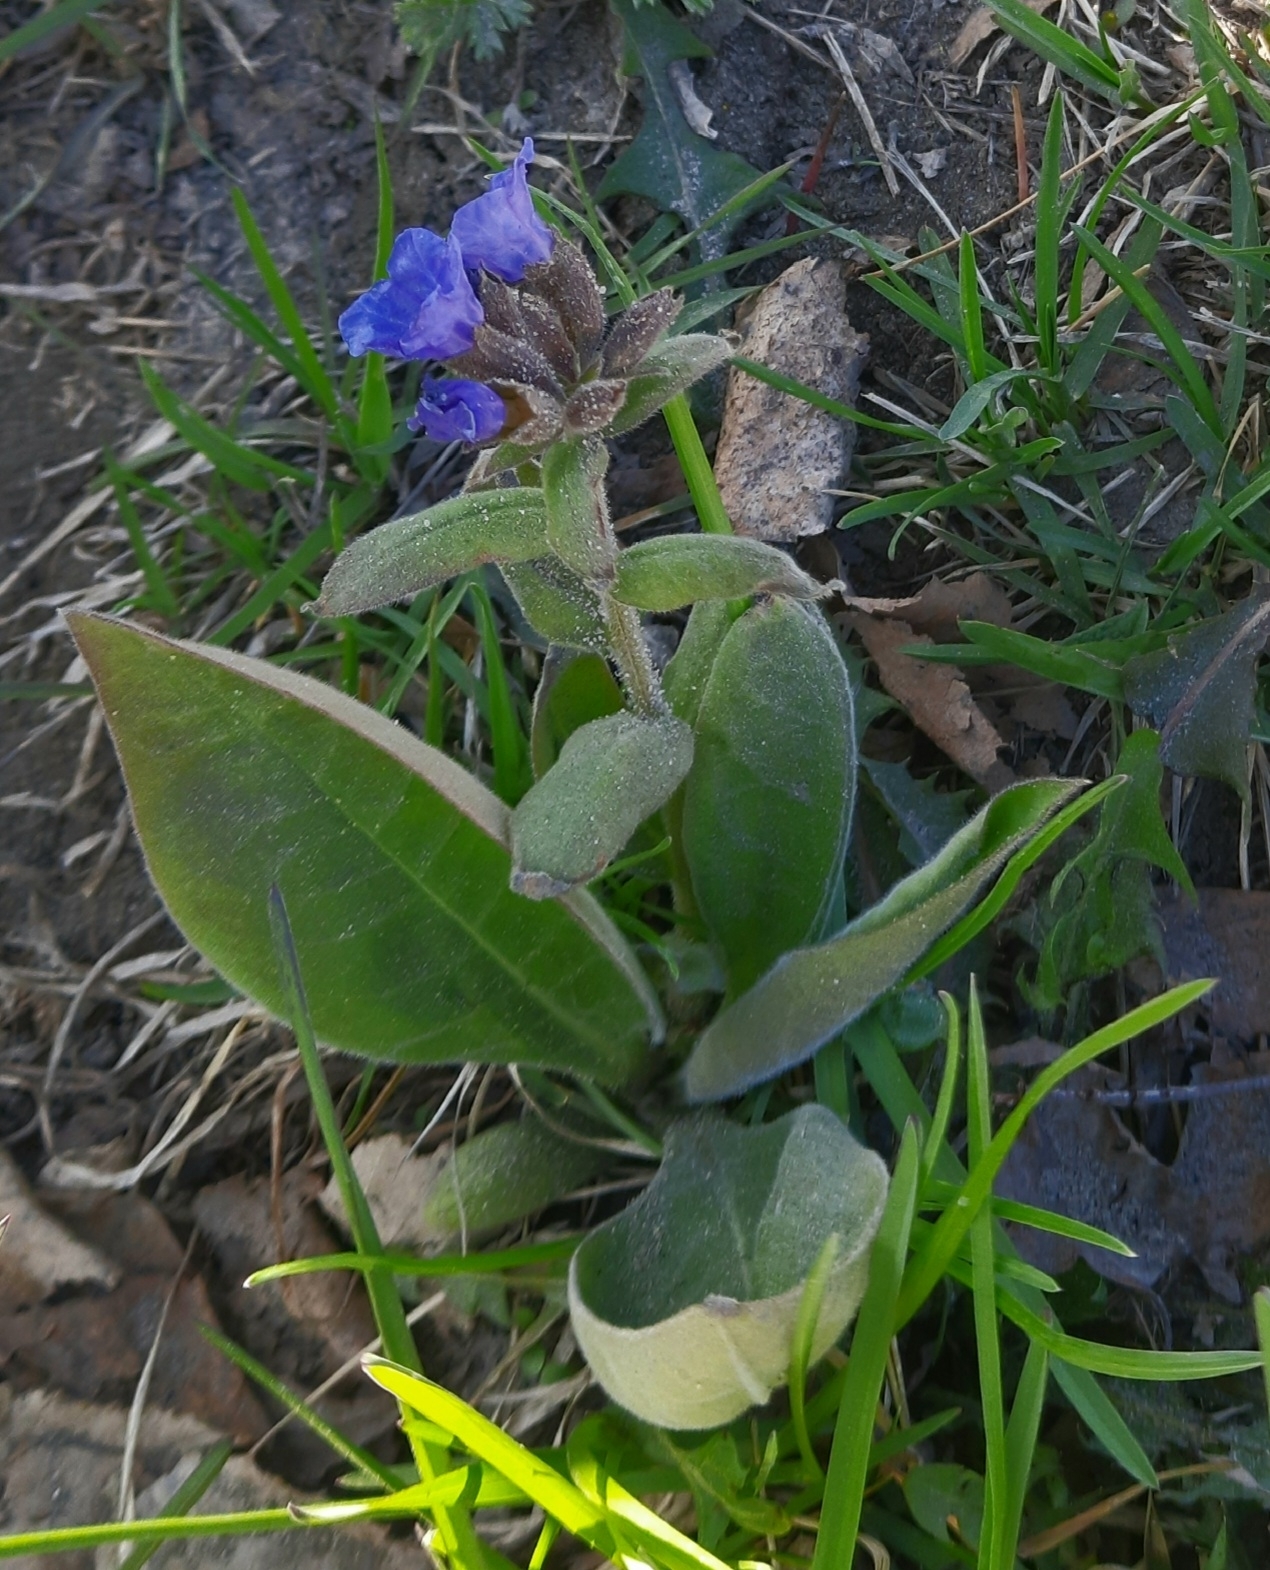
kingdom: Plantae
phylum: Tracheophyta
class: Magnoliopsida
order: Boraginales
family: Boraginaceae
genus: Pulmonaria
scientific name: Pulmonaria mollis
